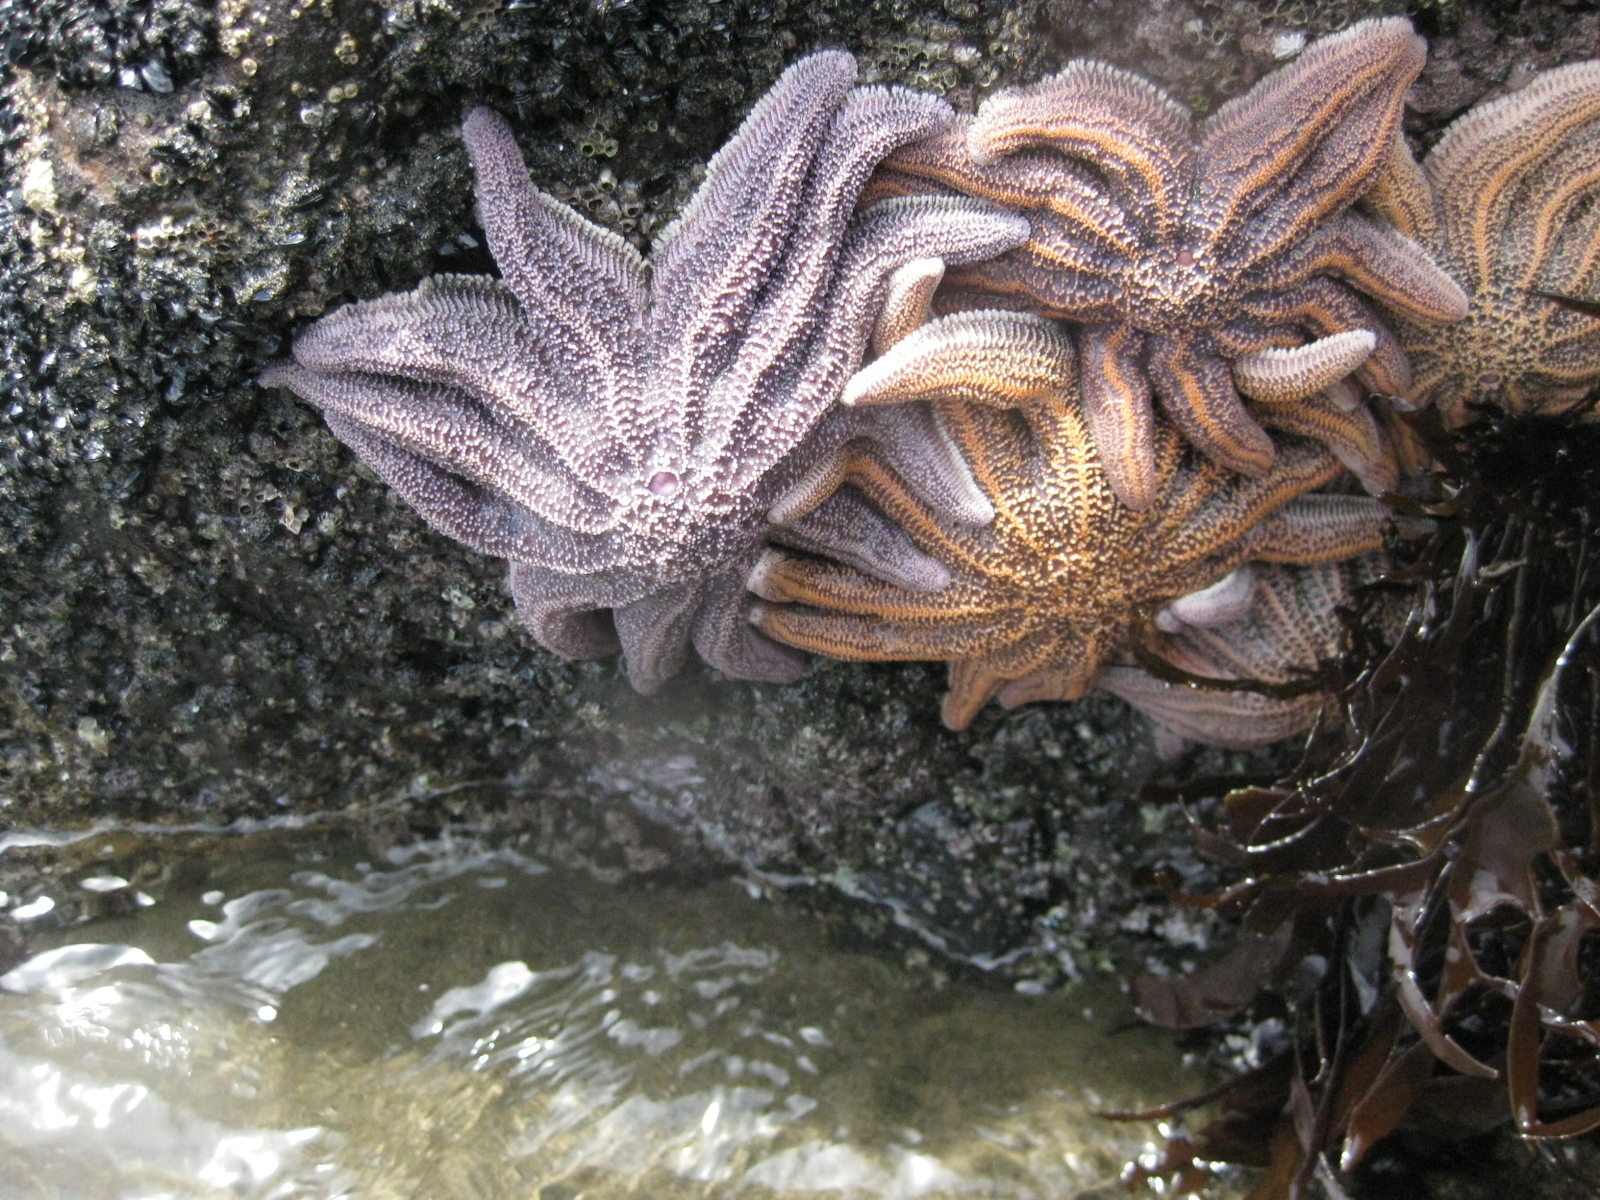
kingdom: Animalia
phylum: Echinodermata
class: Asteroidea
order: Forcipulatida
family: Stichasteridae
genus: Stichaster
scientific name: Stichaster australis
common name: Reef starfish
